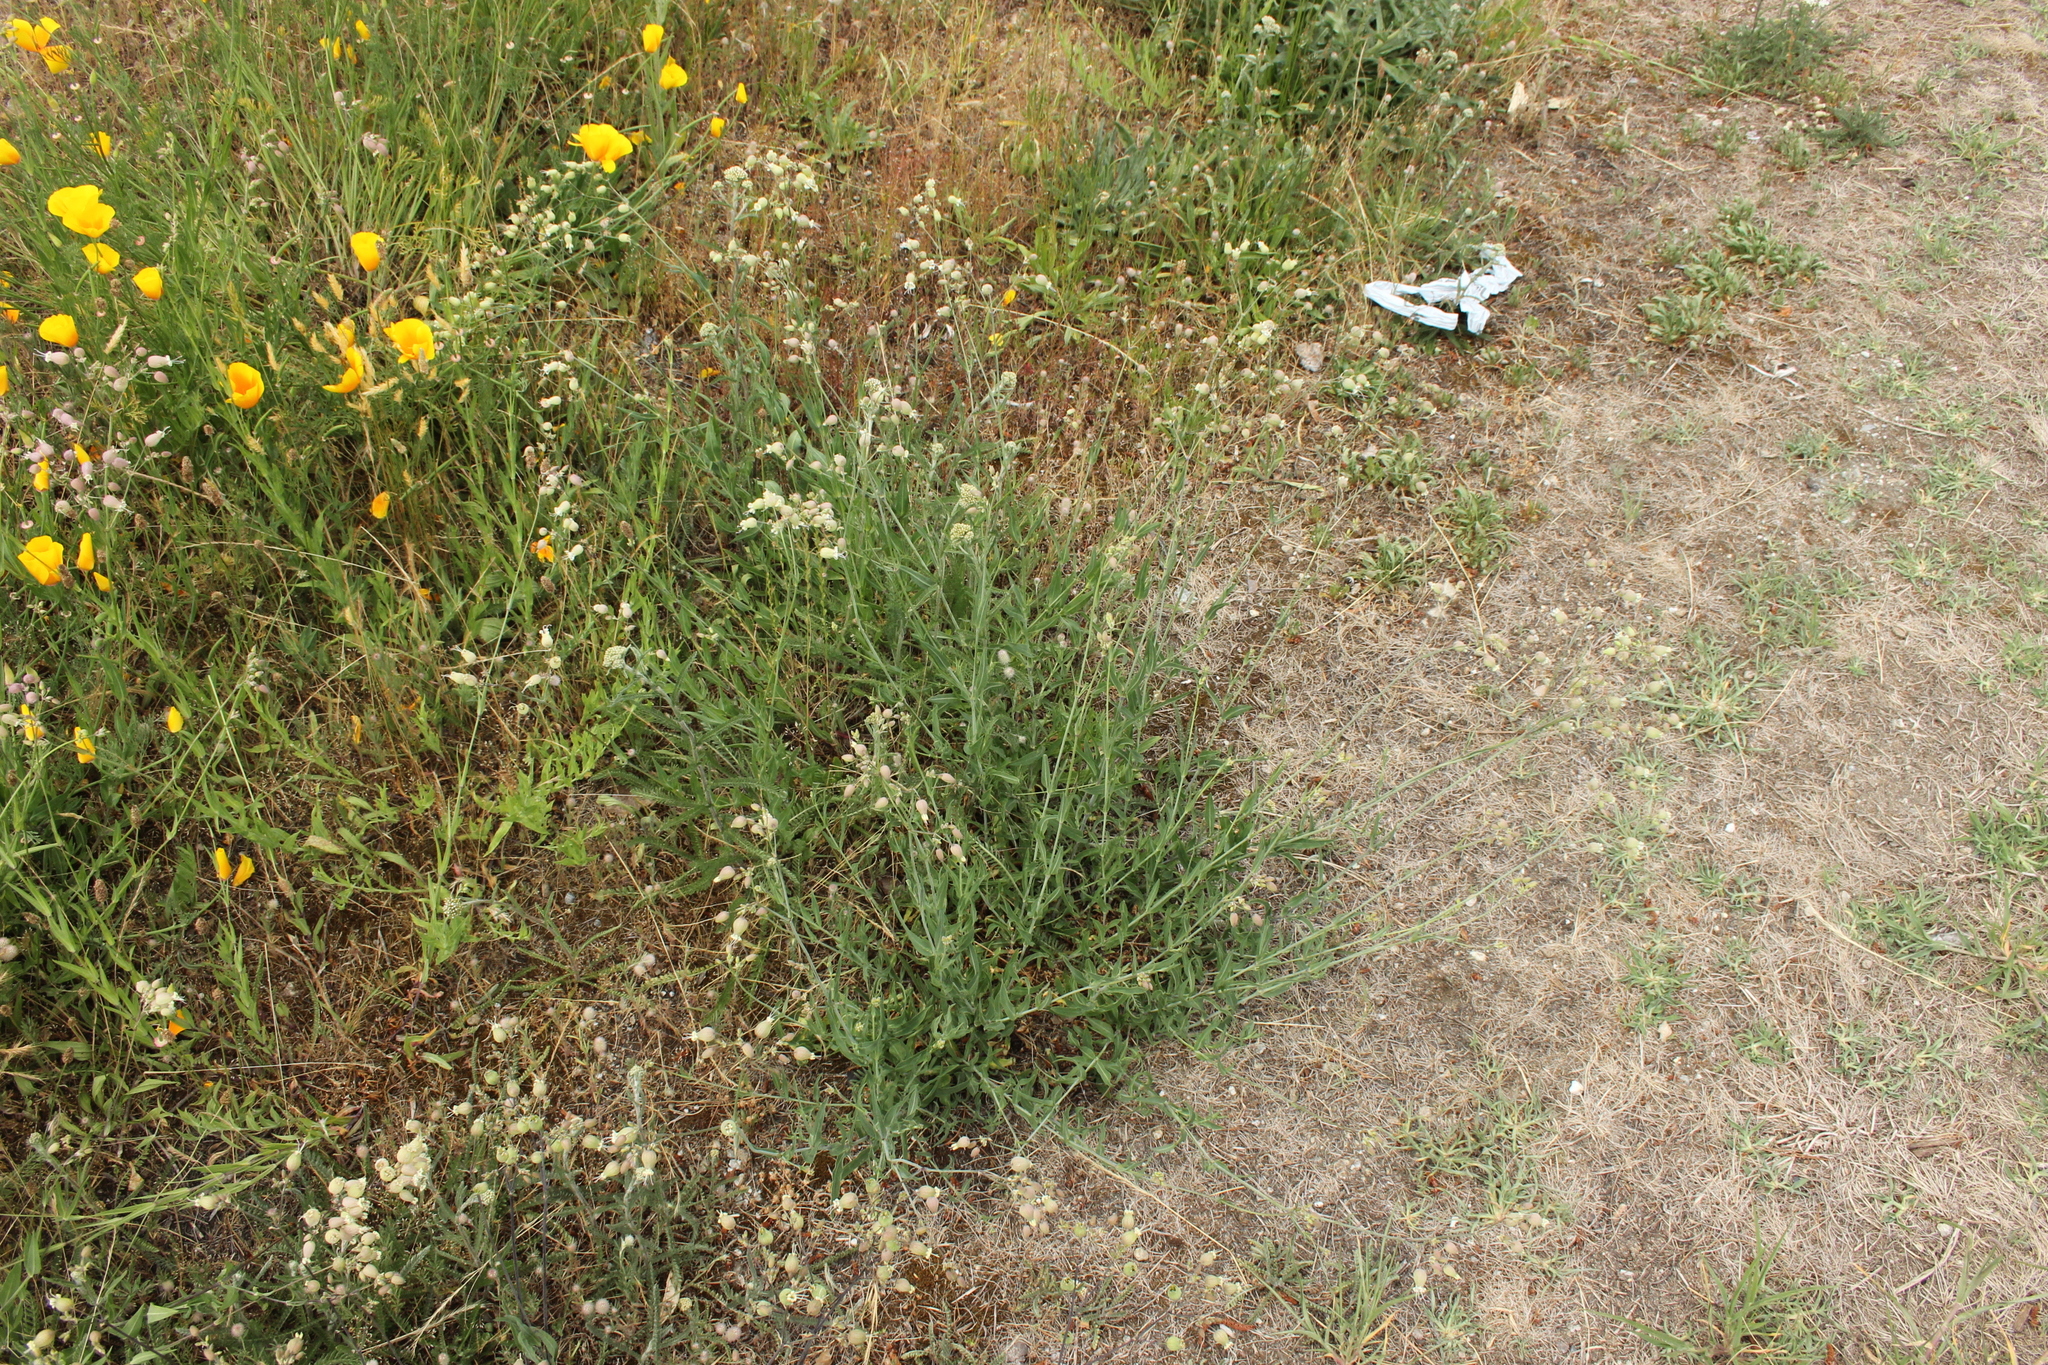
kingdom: Plantae
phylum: Tracheophyta
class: Magnoliopsida
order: Caryophyllales
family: Caryophyllaceae
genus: Silene
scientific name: Silene vulgaris
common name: Bladder campion
